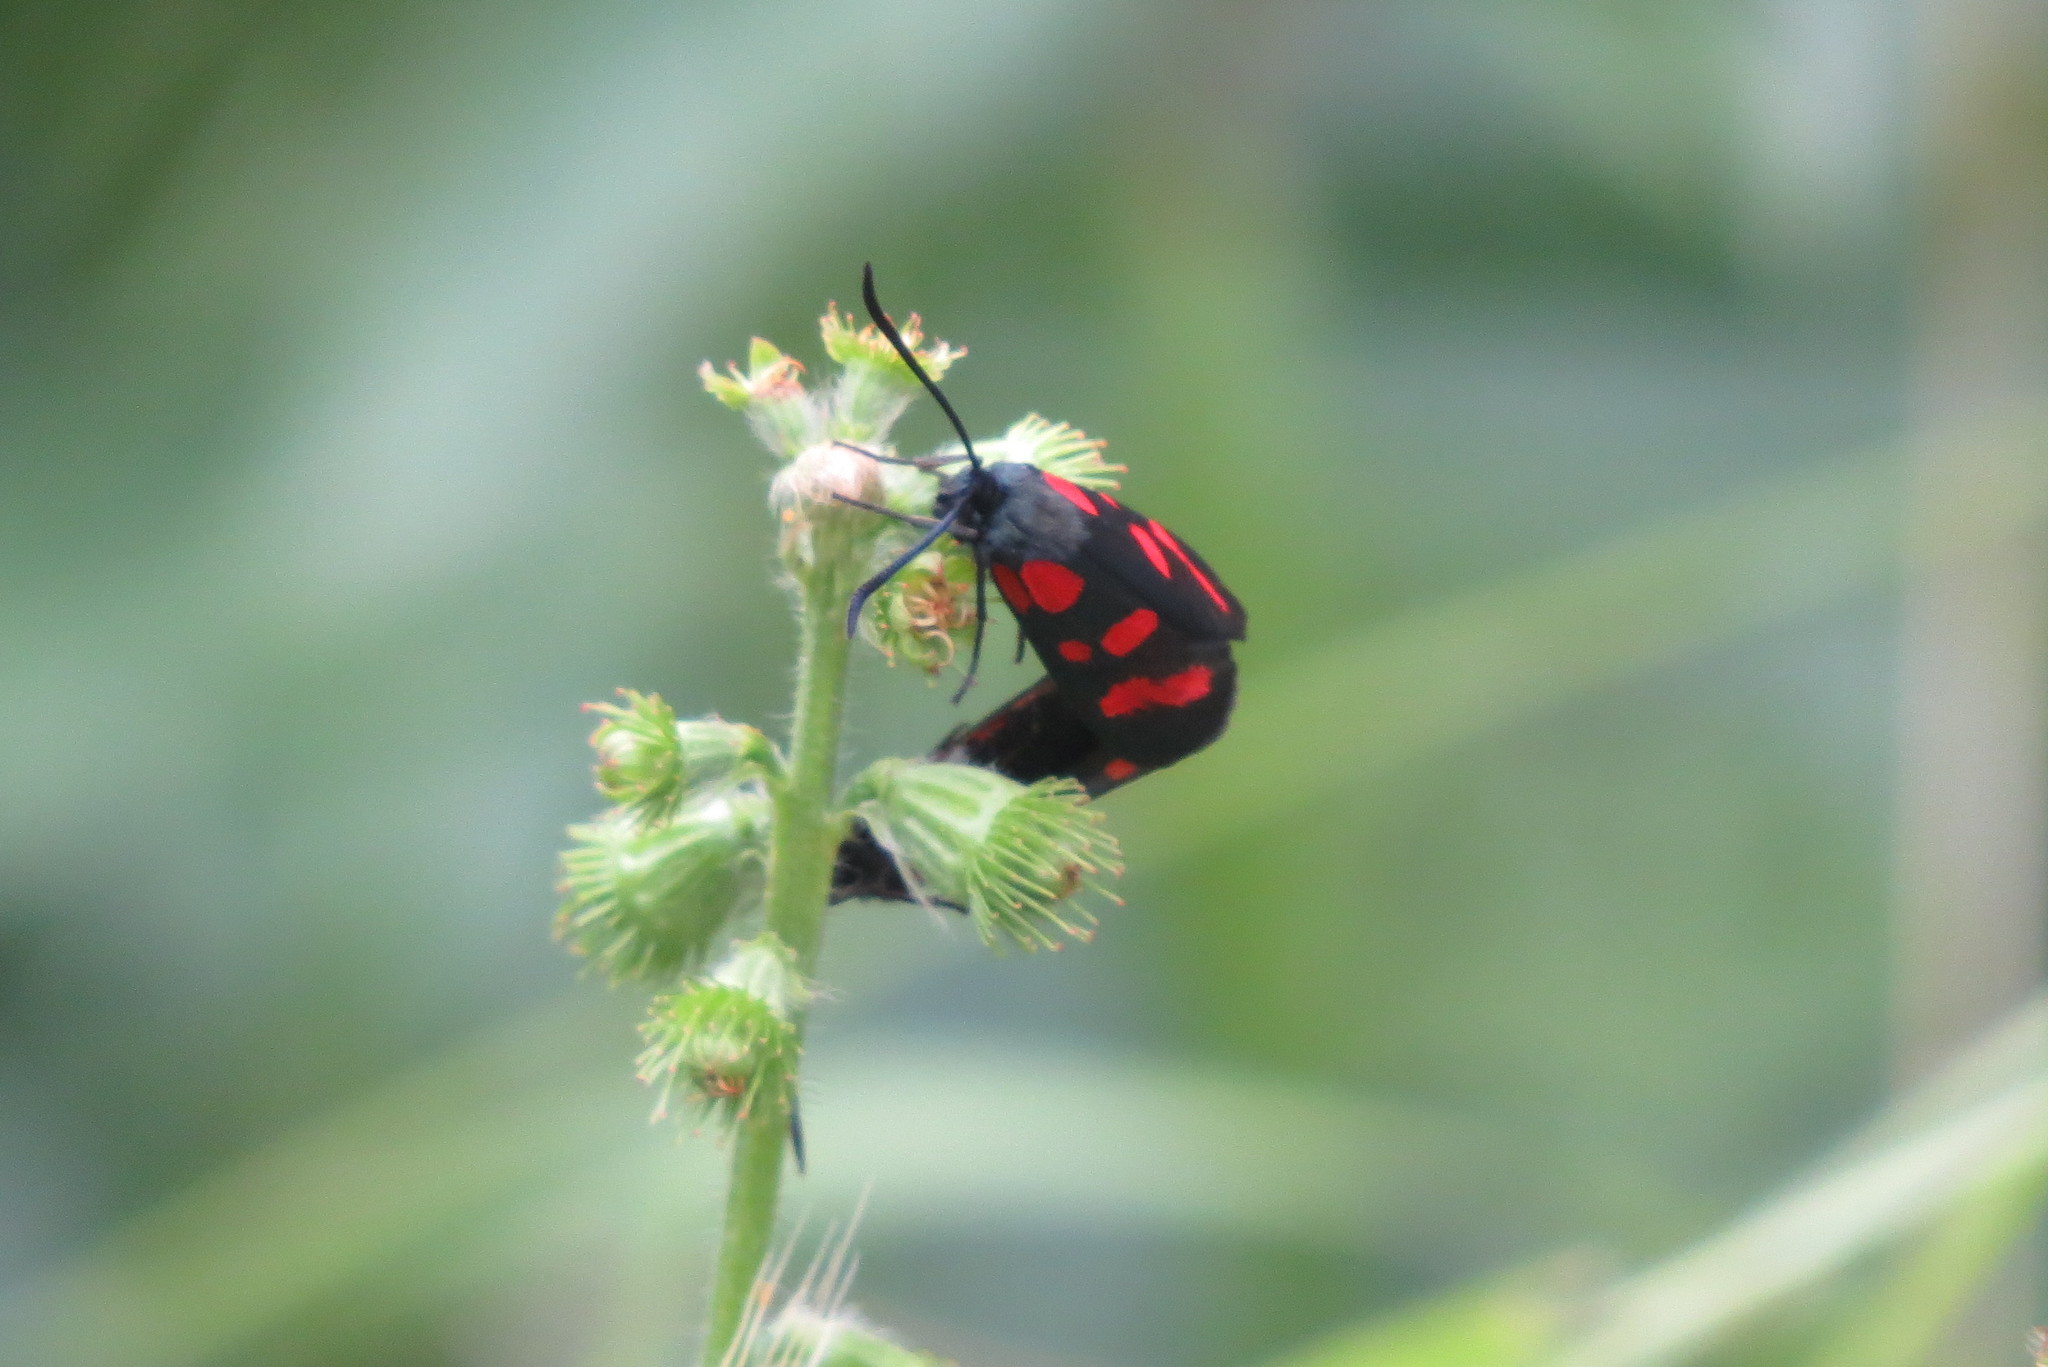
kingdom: Animalia
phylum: Arthropoda
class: Insecta
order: Lepidoptera
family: Zygaenidae
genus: Zygaena
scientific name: Zygaena filipendulae
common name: Six-spot burnet
